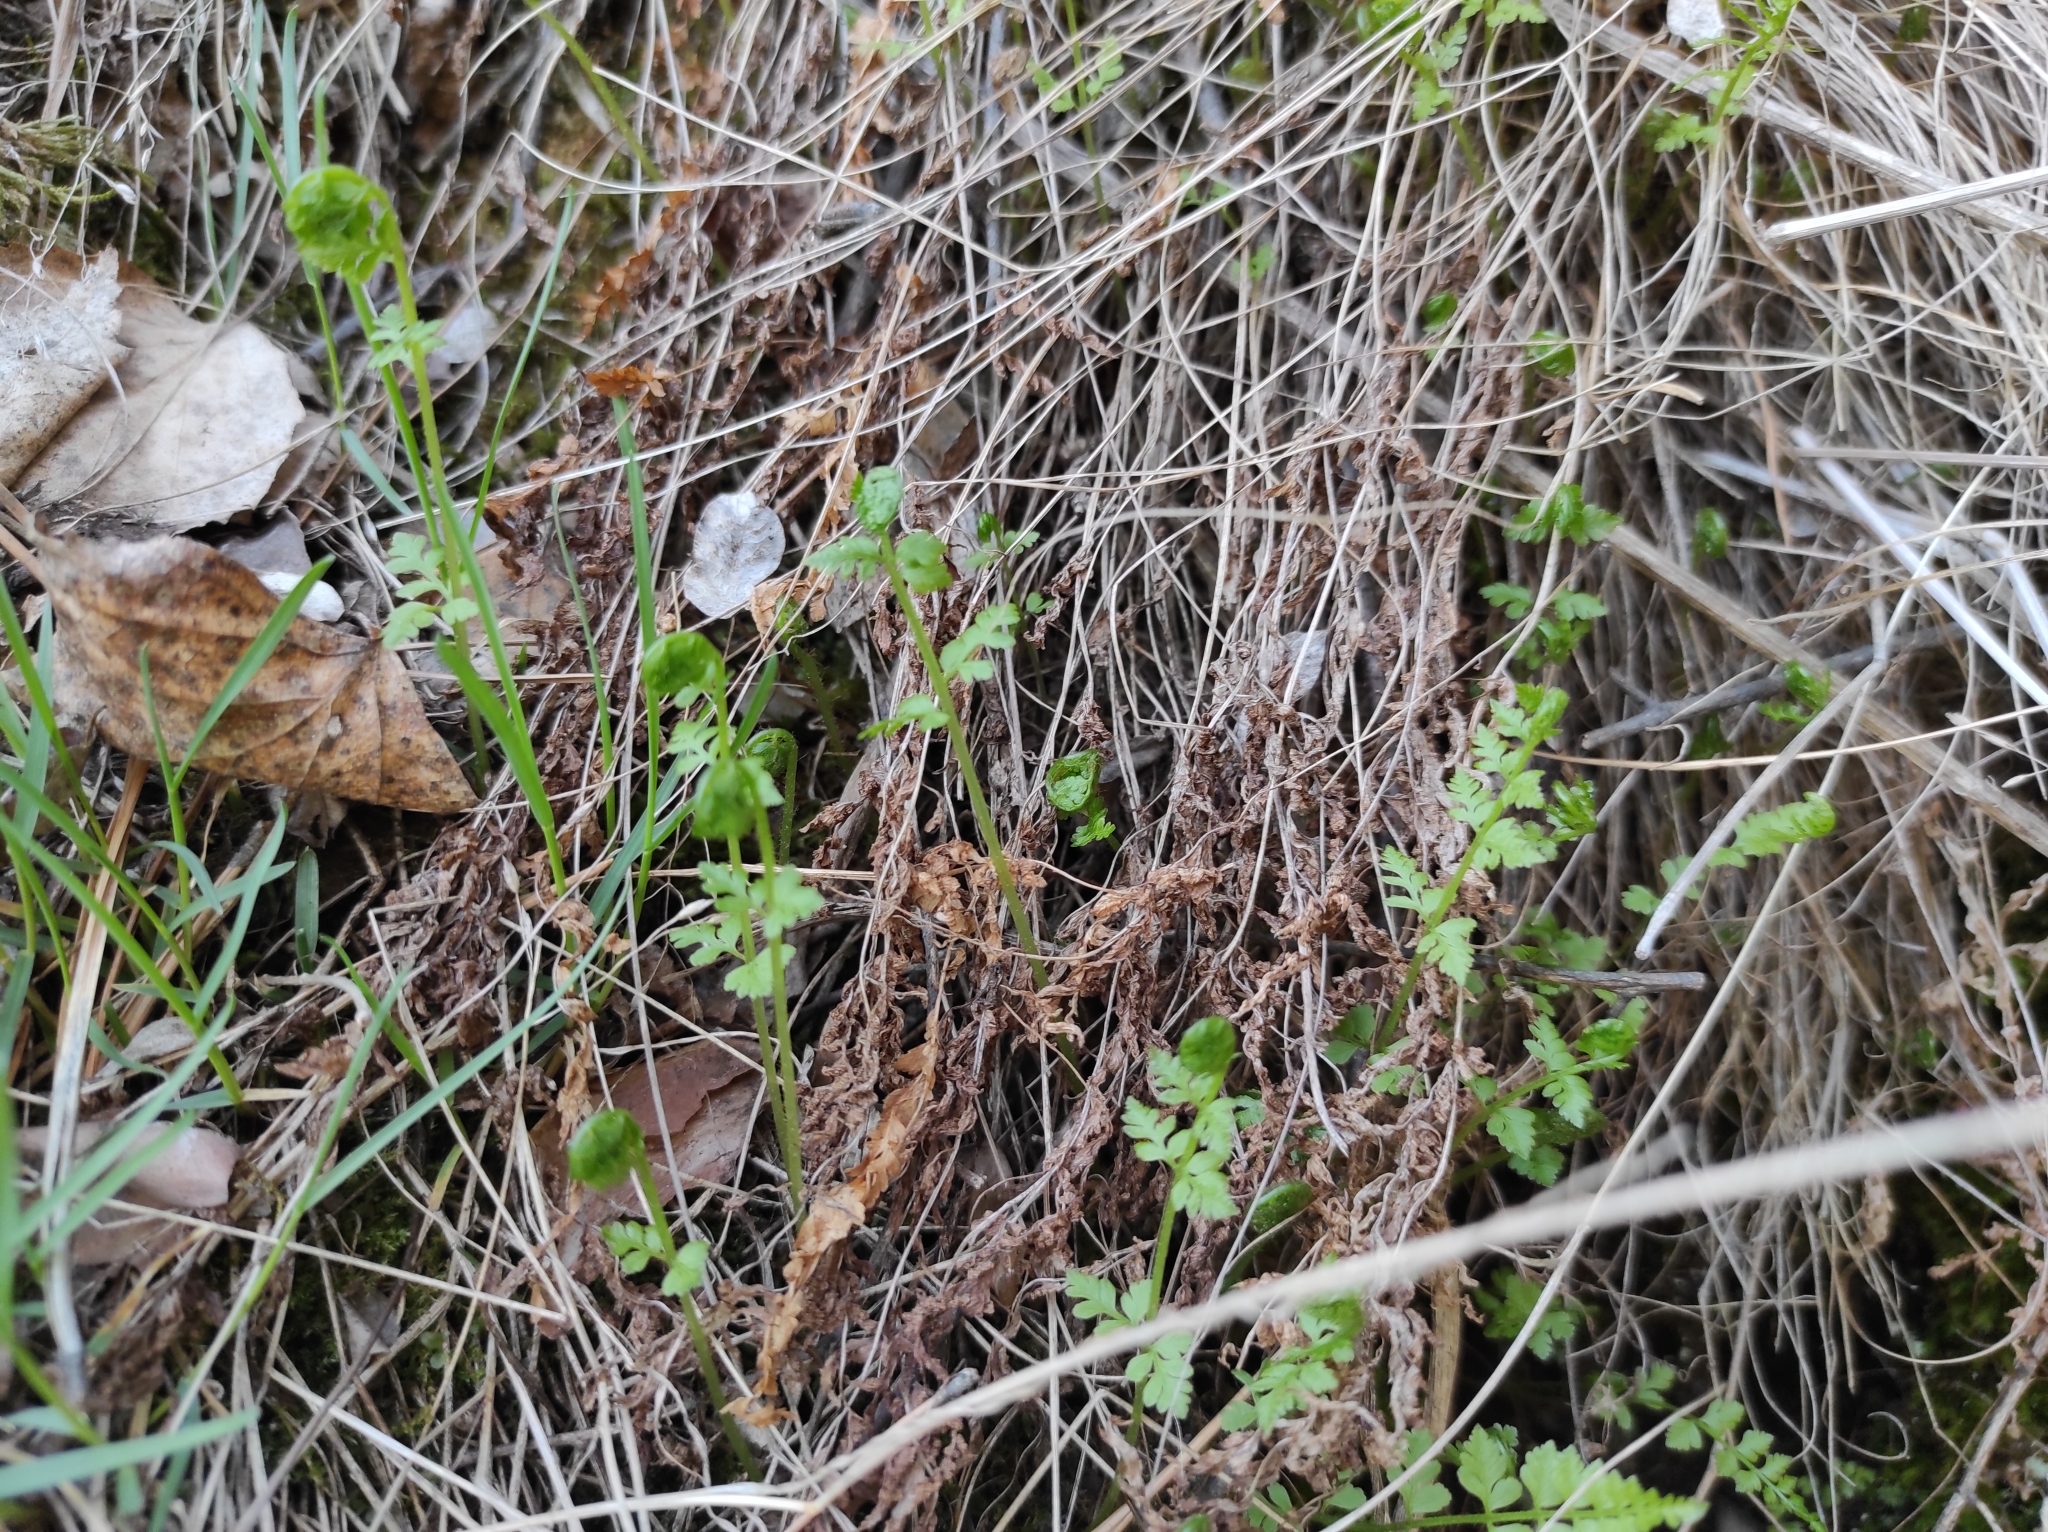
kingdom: Plantae
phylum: Tracheophyta
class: Polypodiopsida
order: Polypodiales
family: Cystopteridaceae
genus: Cystopteris
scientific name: Cystopteris fragilis
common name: Brittle bladder fern
